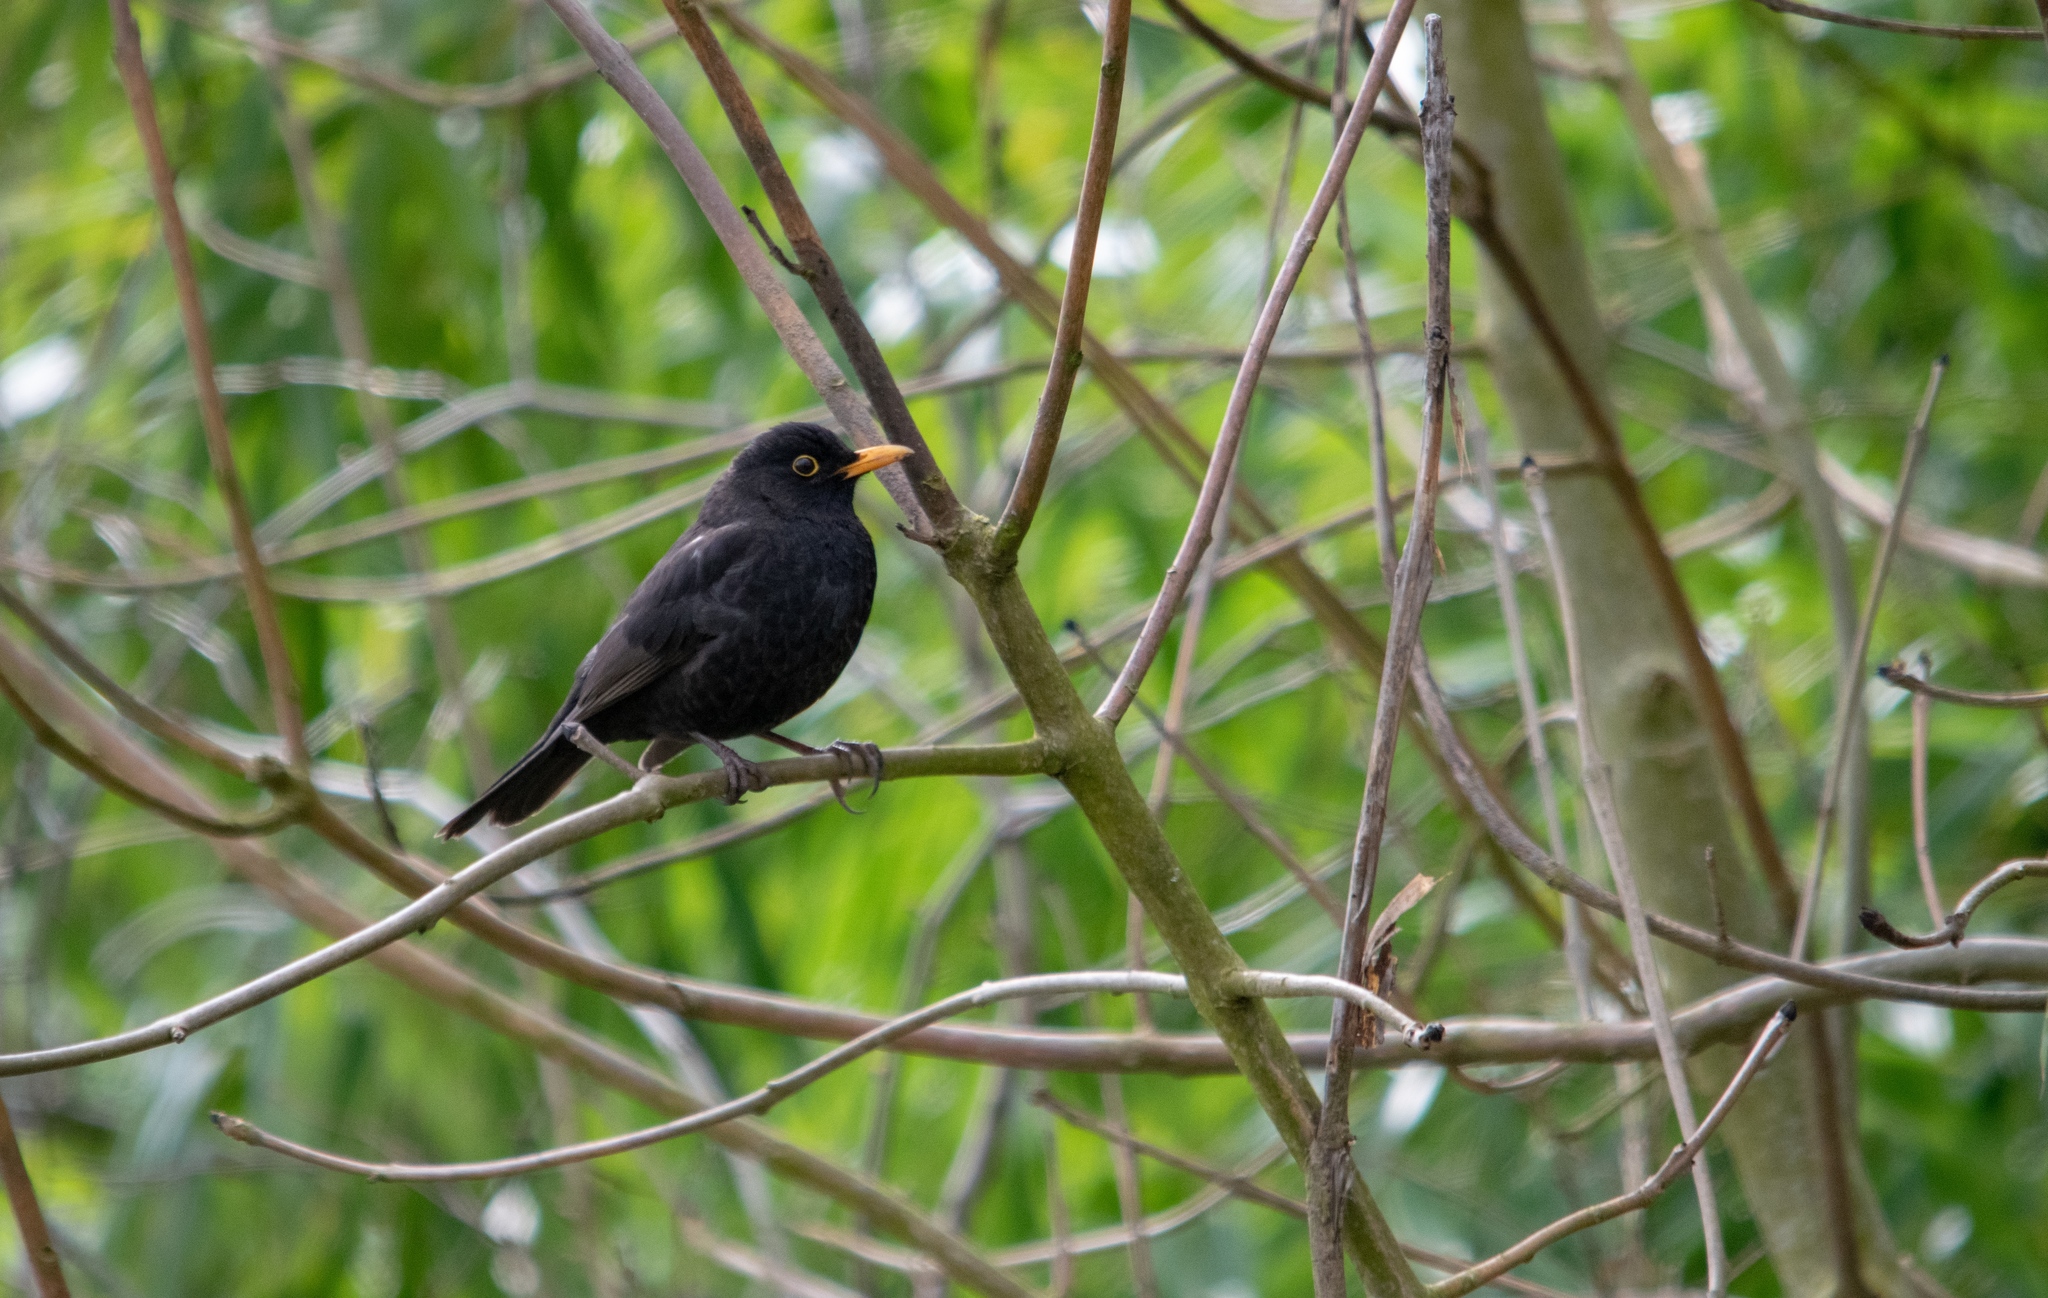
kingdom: Animalia
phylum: Chordata
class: Aves
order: Passeriformes
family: Turdidae
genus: Turdus
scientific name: Turdus merula
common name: Common blackbird
